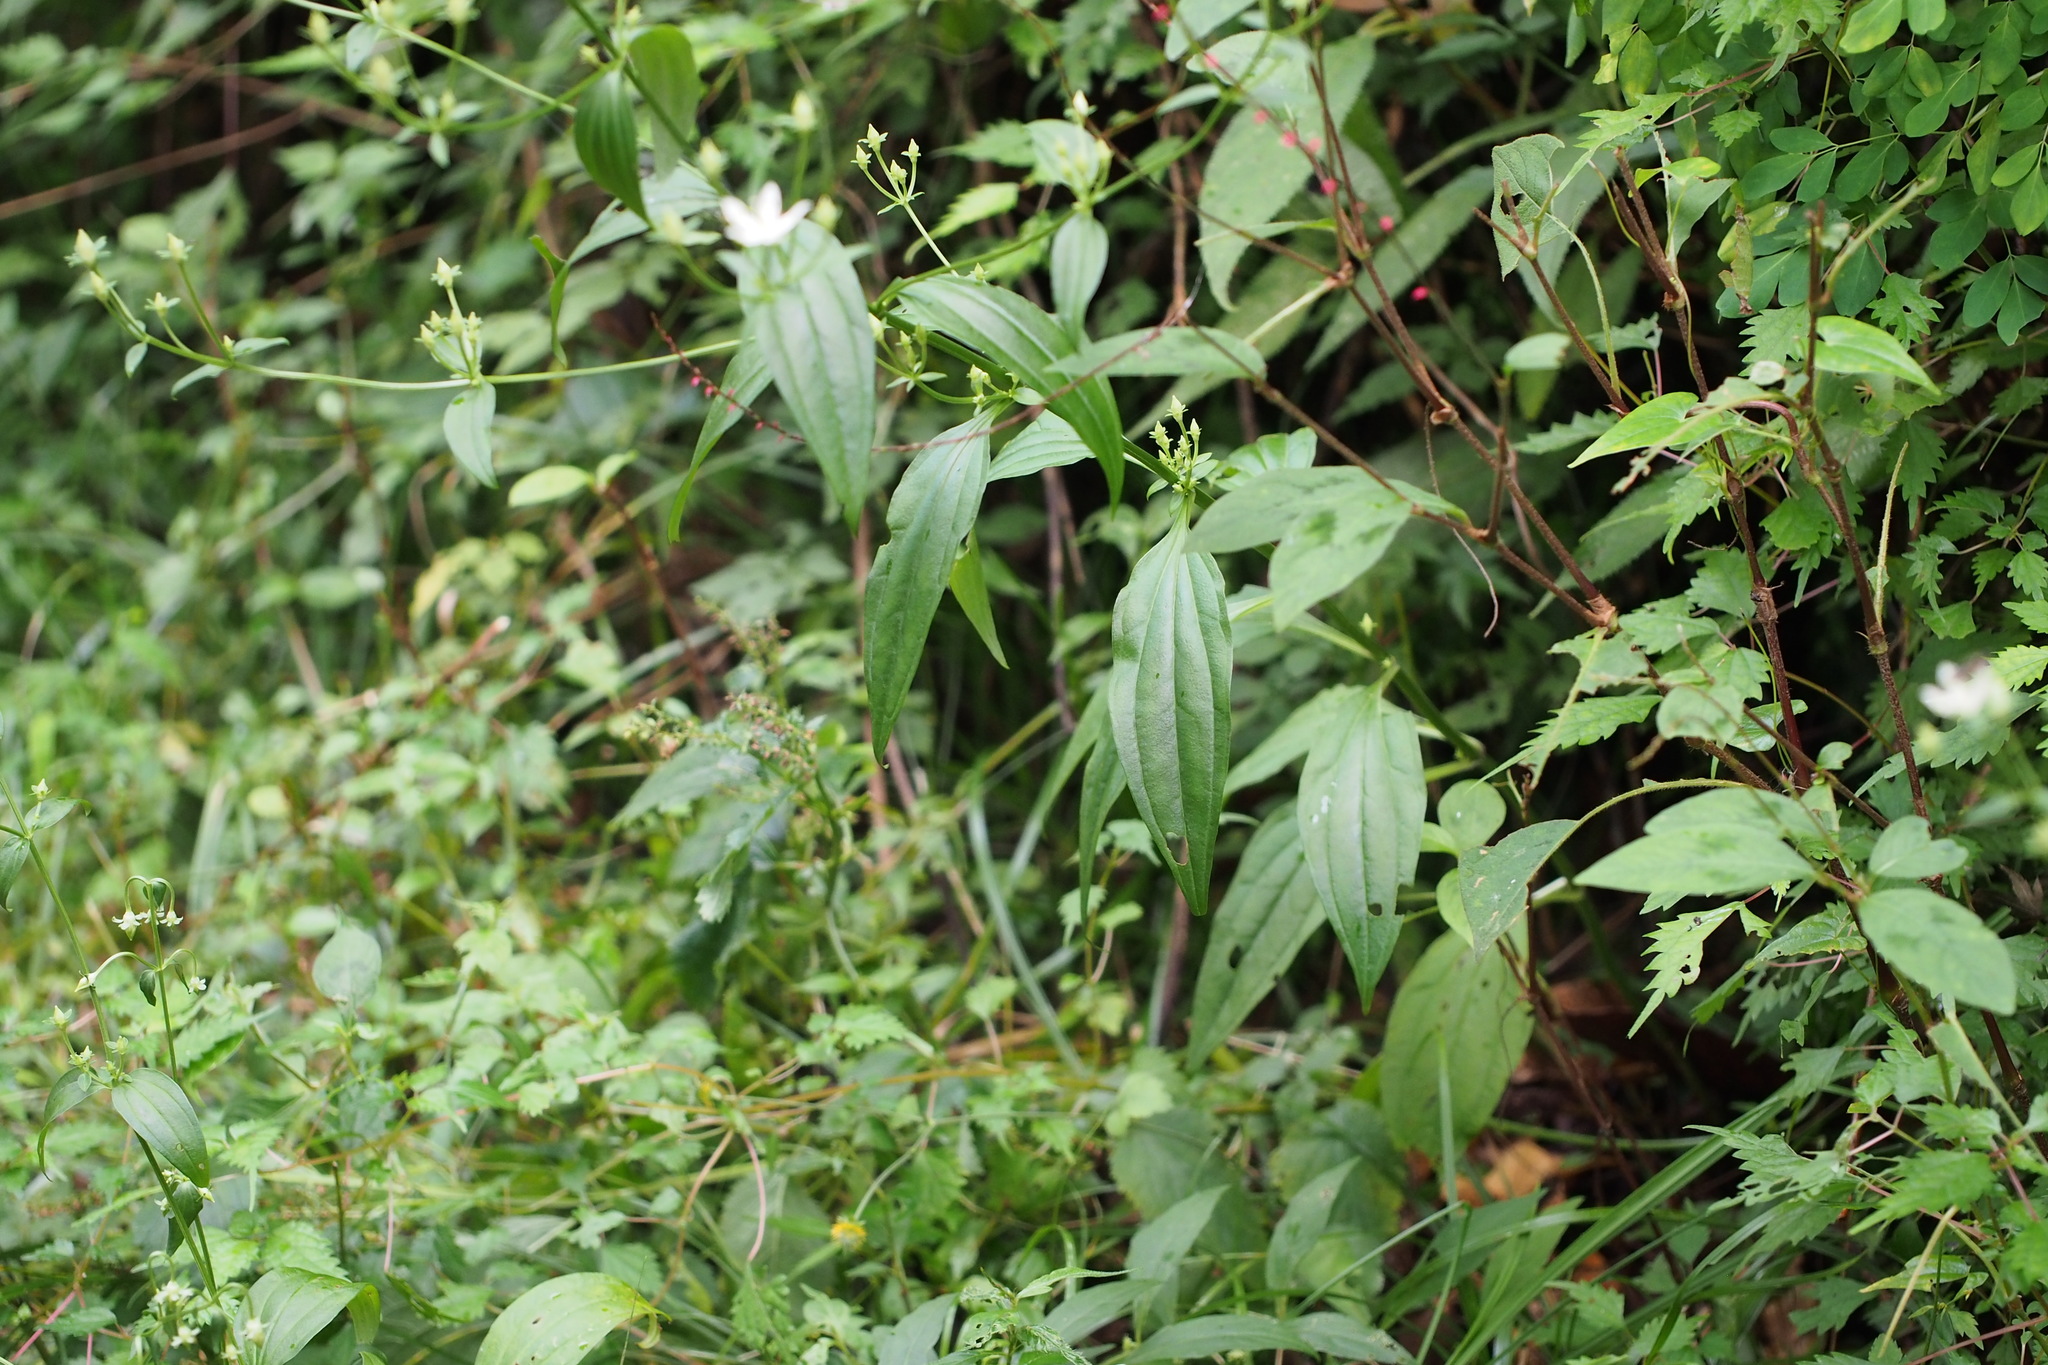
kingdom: Plantae
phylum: Tracheophyta
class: Magnoliopsida
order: Gentianales
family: Gentianaceae
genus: Swertia
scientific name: Swertia bimaculata
